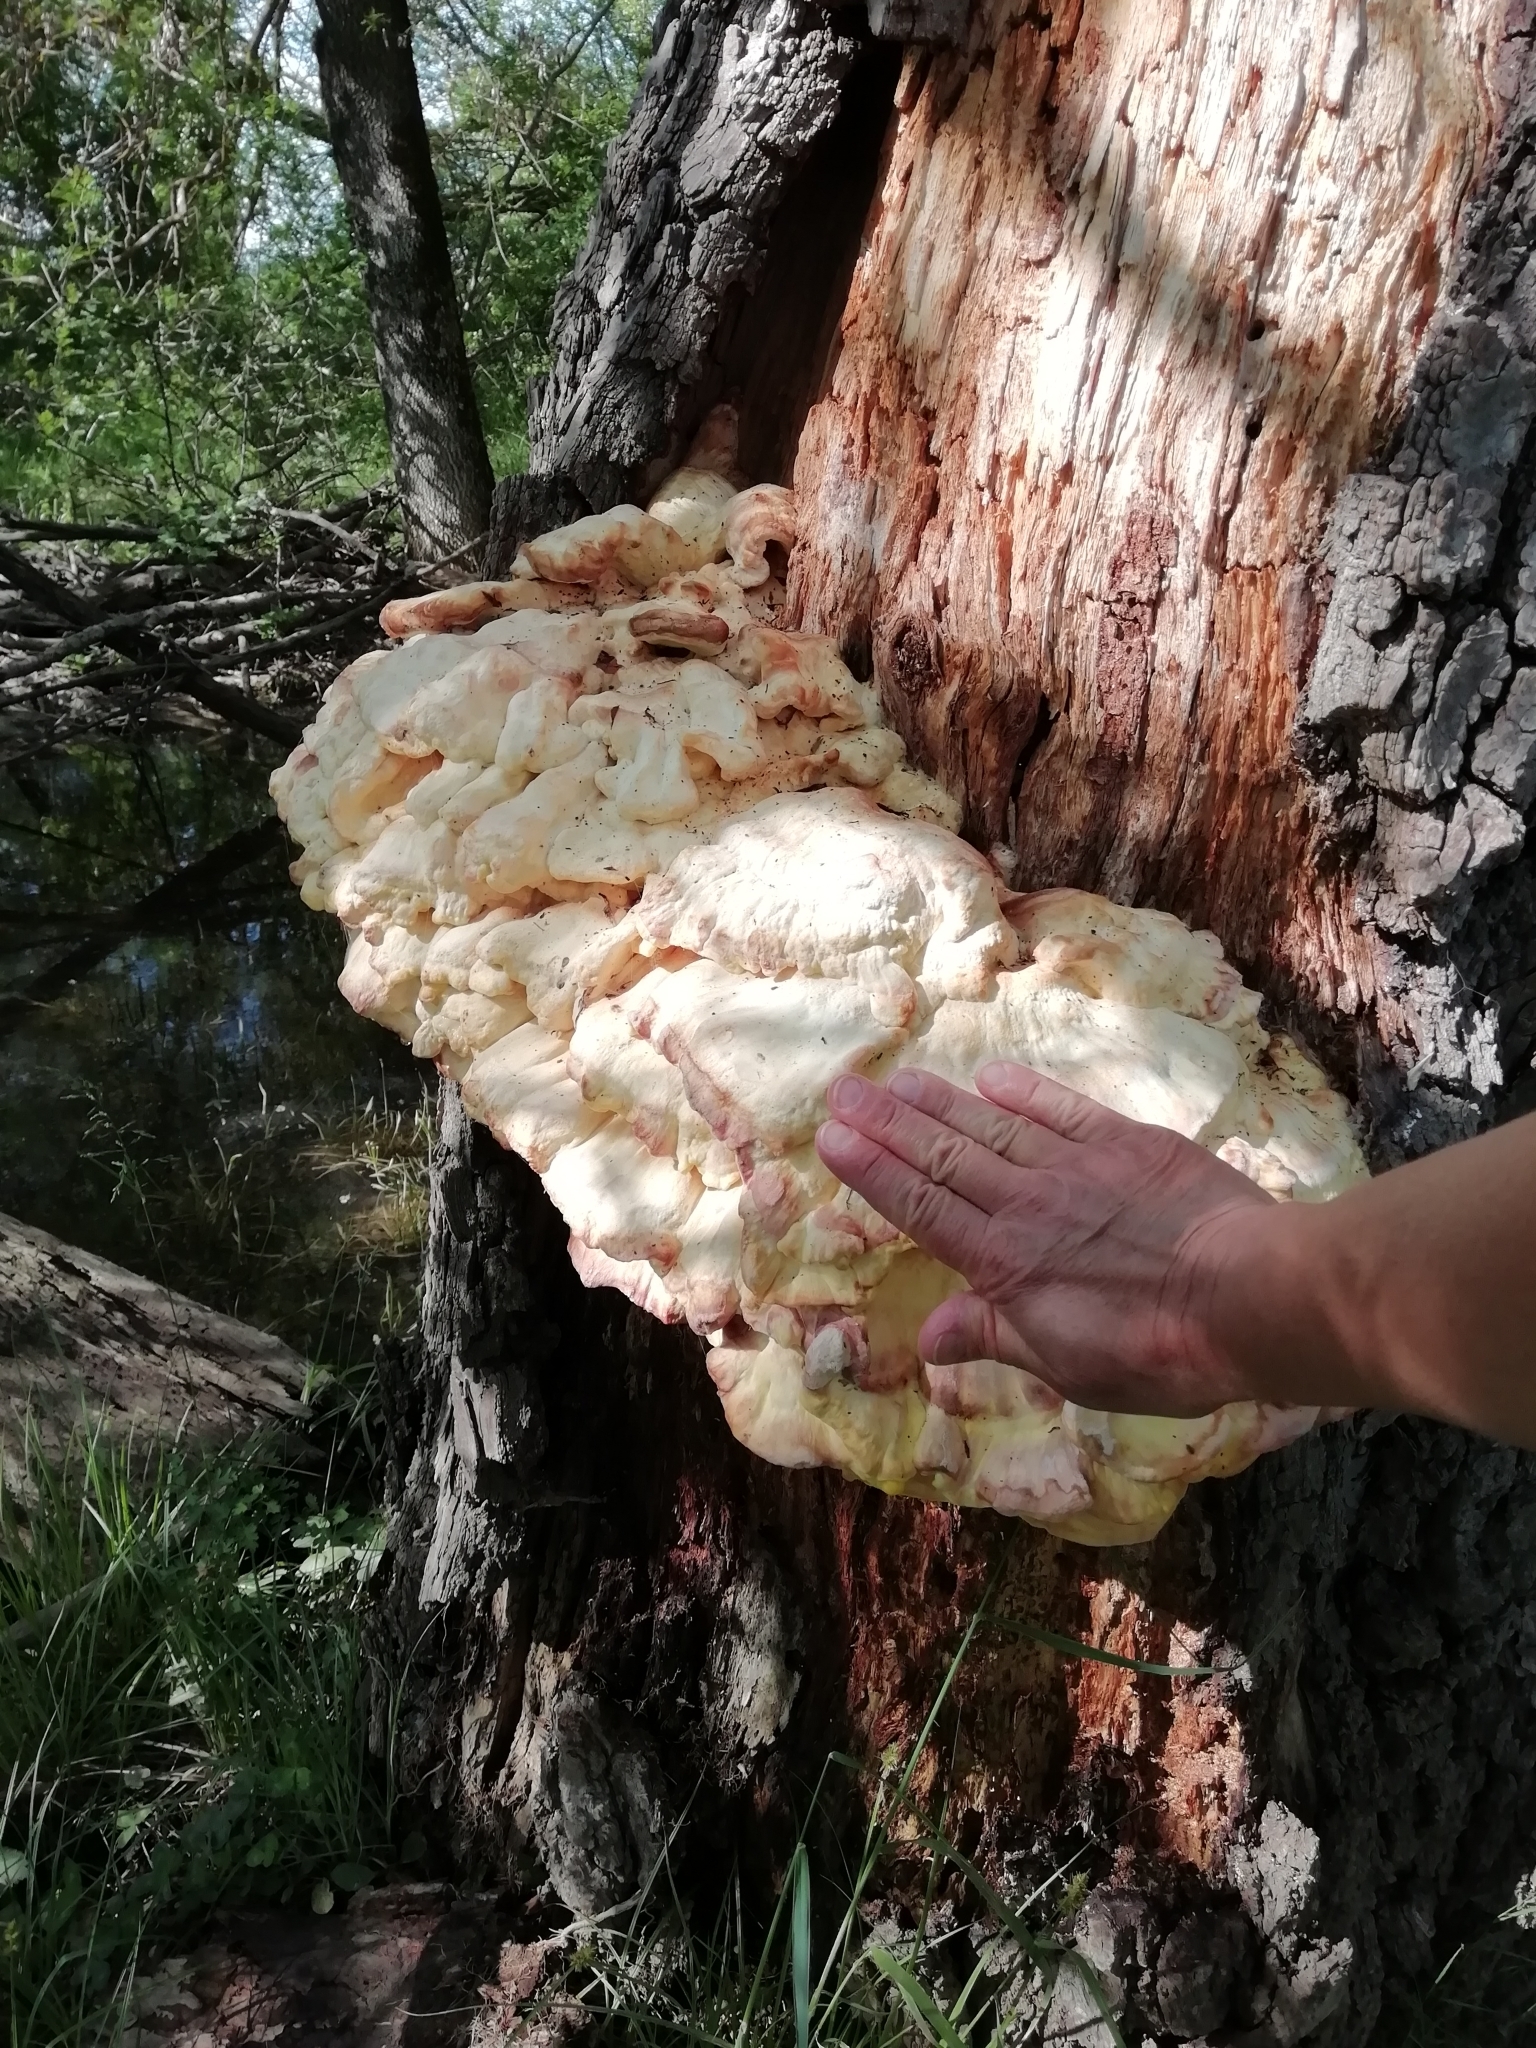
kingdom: Fungi
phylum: Basidiomycota
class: Agaricomycetes
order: Polyporales
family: Laetiporaceae
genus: Laetiporus
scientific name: Laetiporus sulphureus
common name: Chicken of the woods
